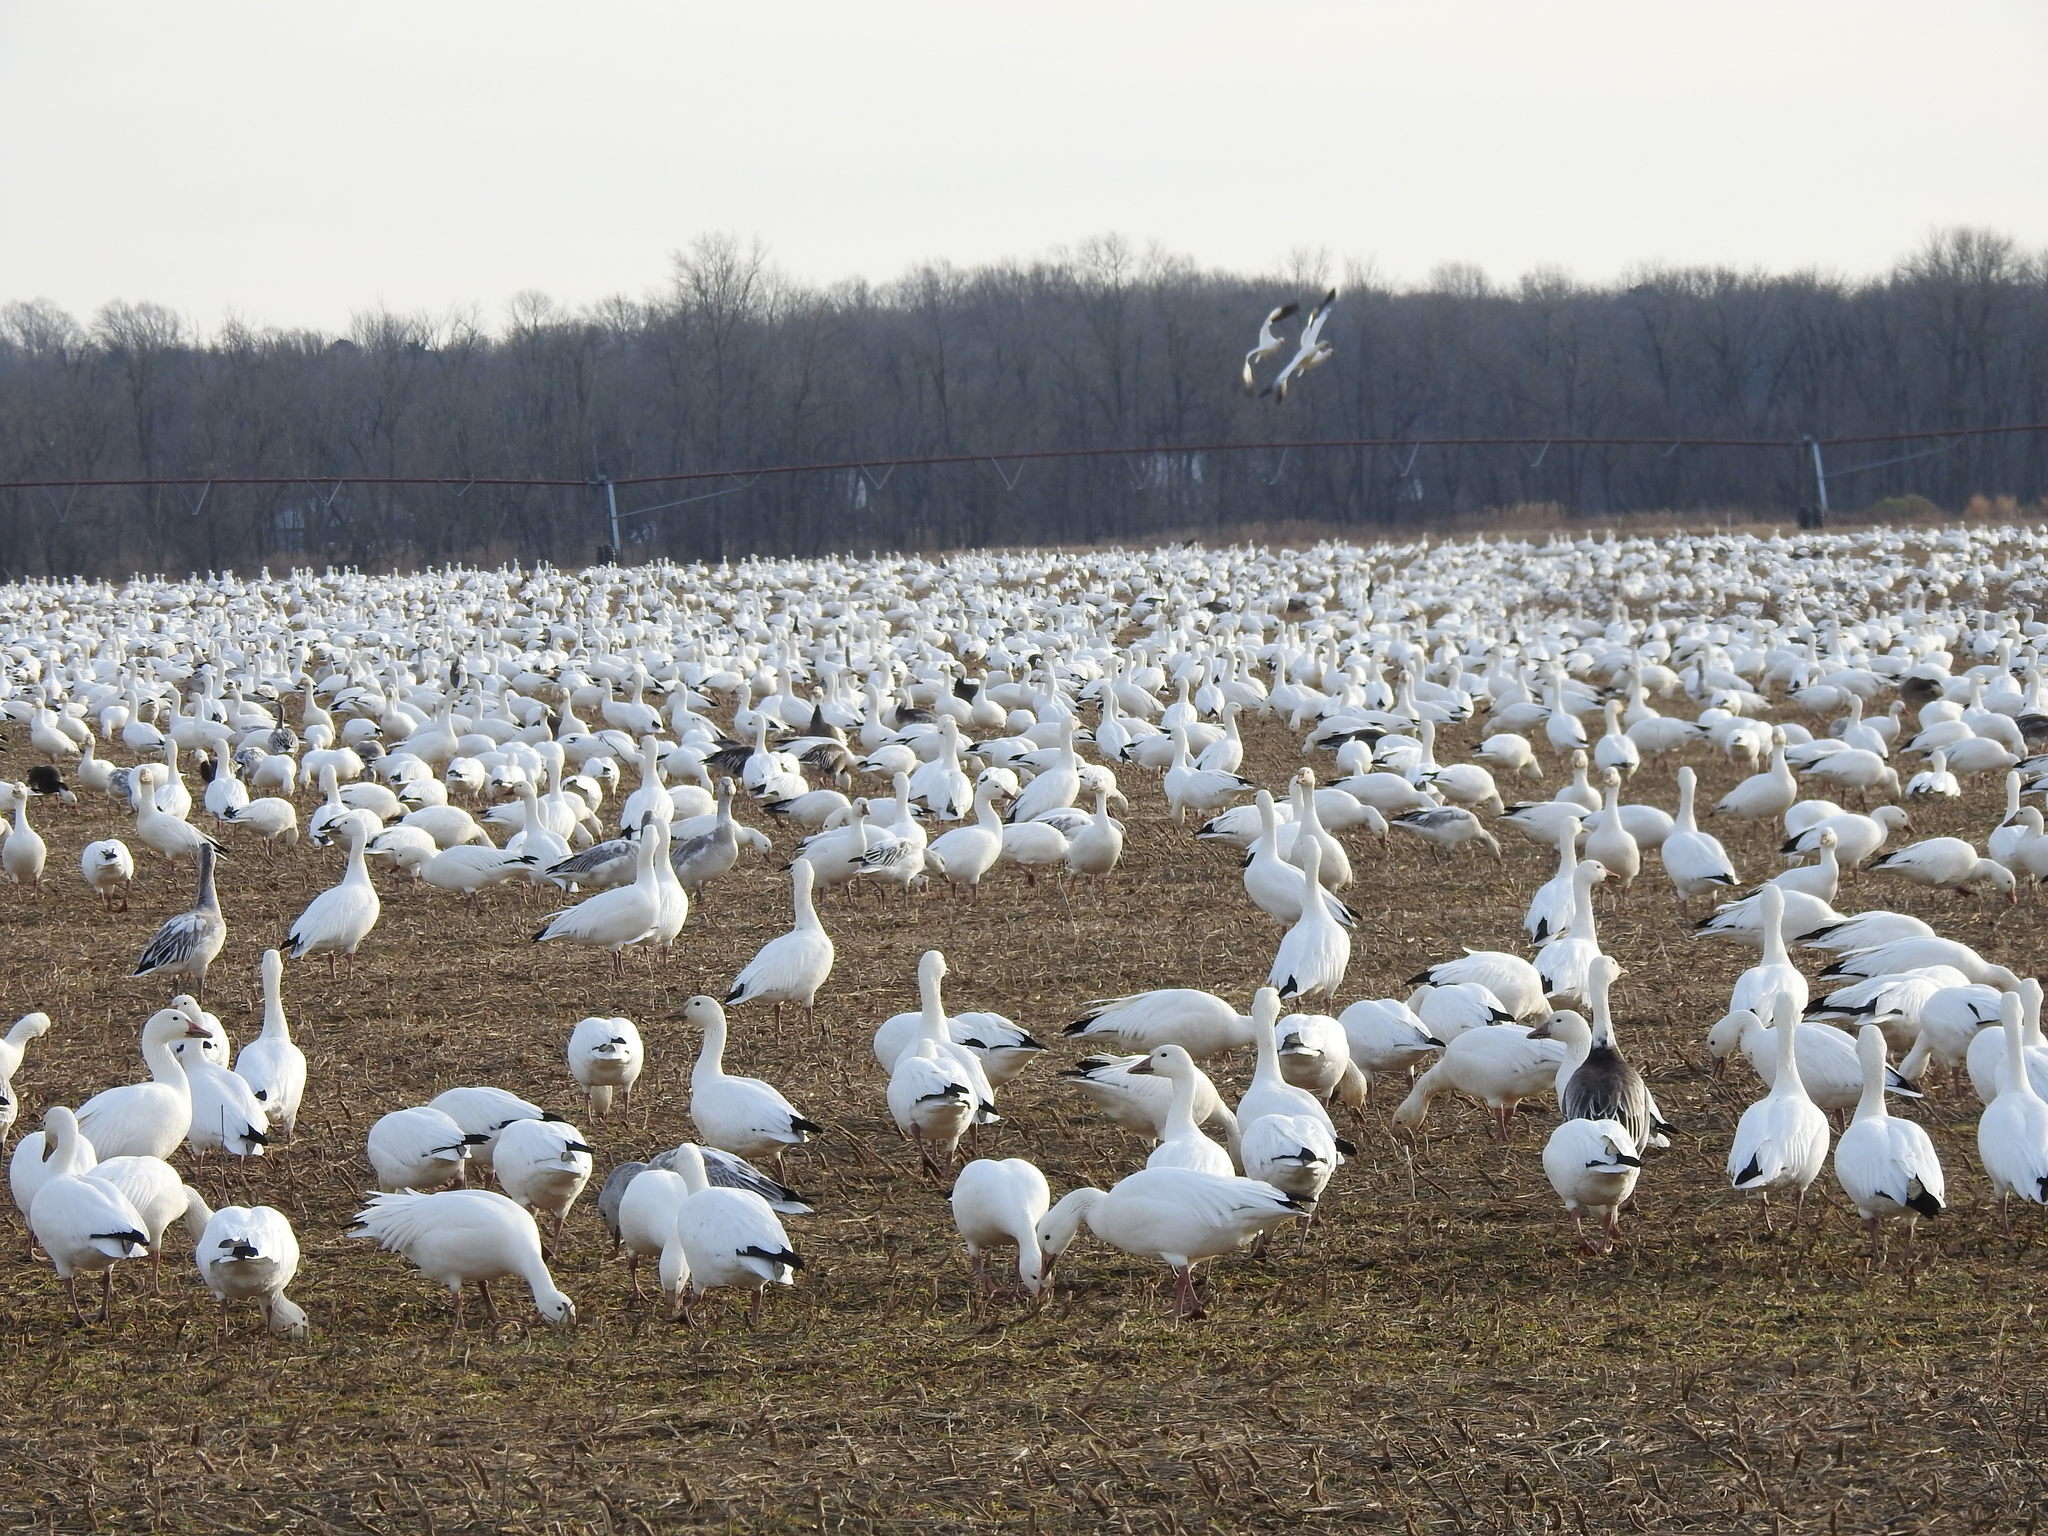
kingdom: Animalia
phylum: Chordata
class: Aves
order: Anseriformes
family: Anatidae
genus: Anser
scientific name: Anser caerulescens
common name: Snow goose
